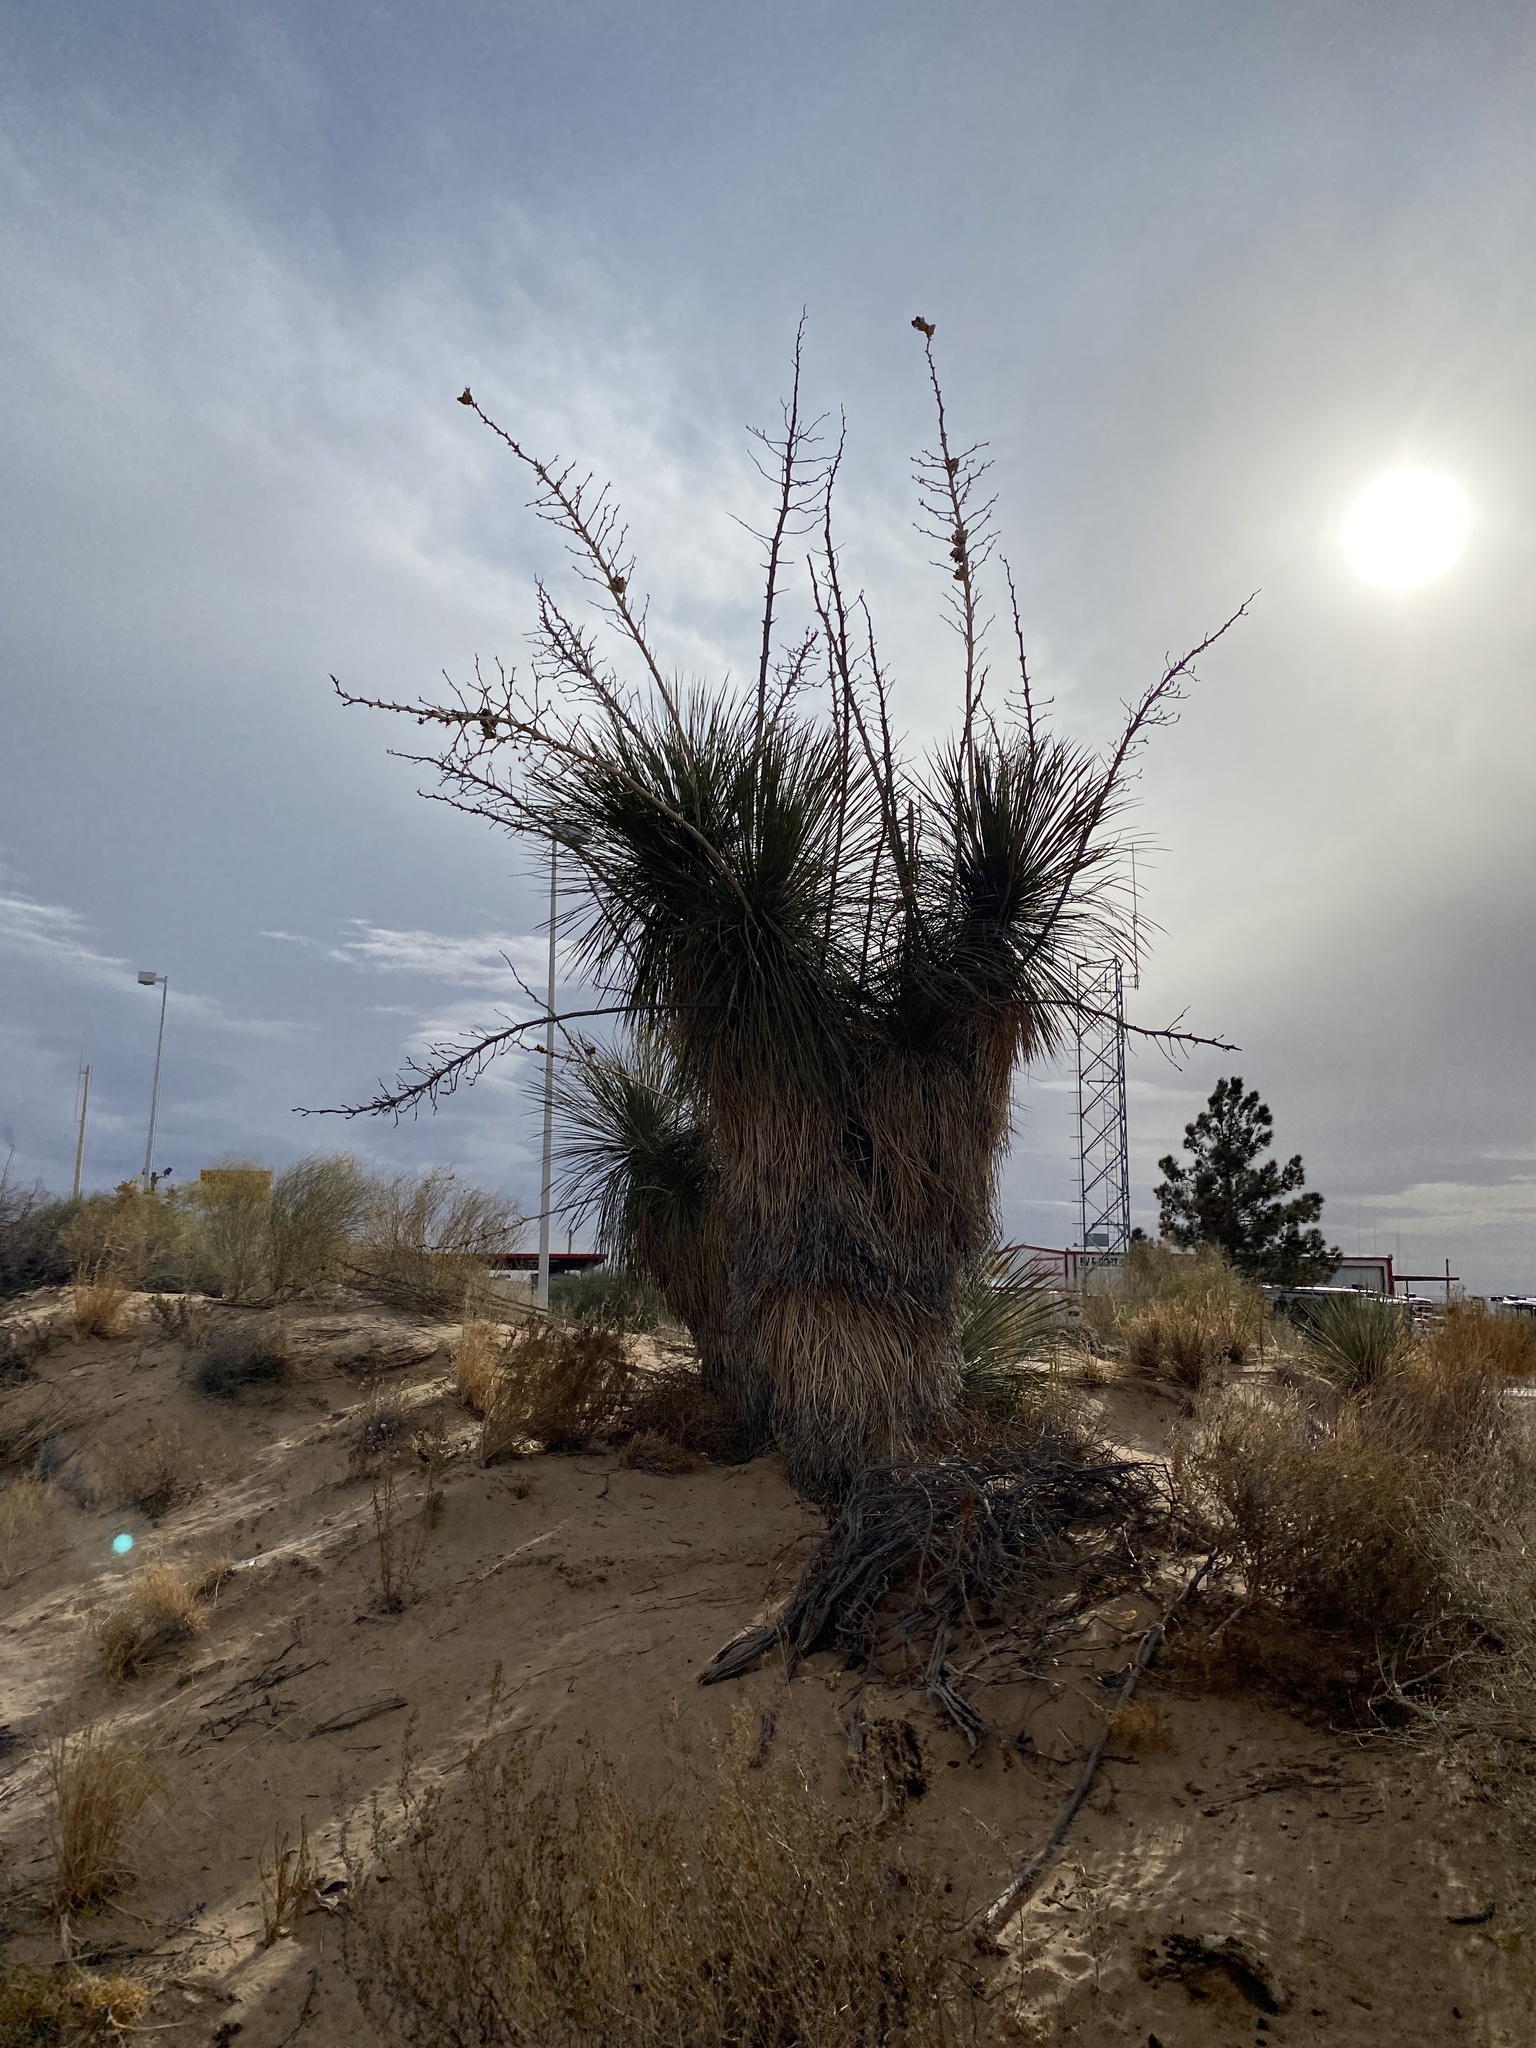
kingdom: Plantae
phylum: Tracheophyta
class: Liliopsida
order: Asparagales
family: Asparagaceae
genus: Yucca
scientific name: Yucca elata
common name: Palmella
